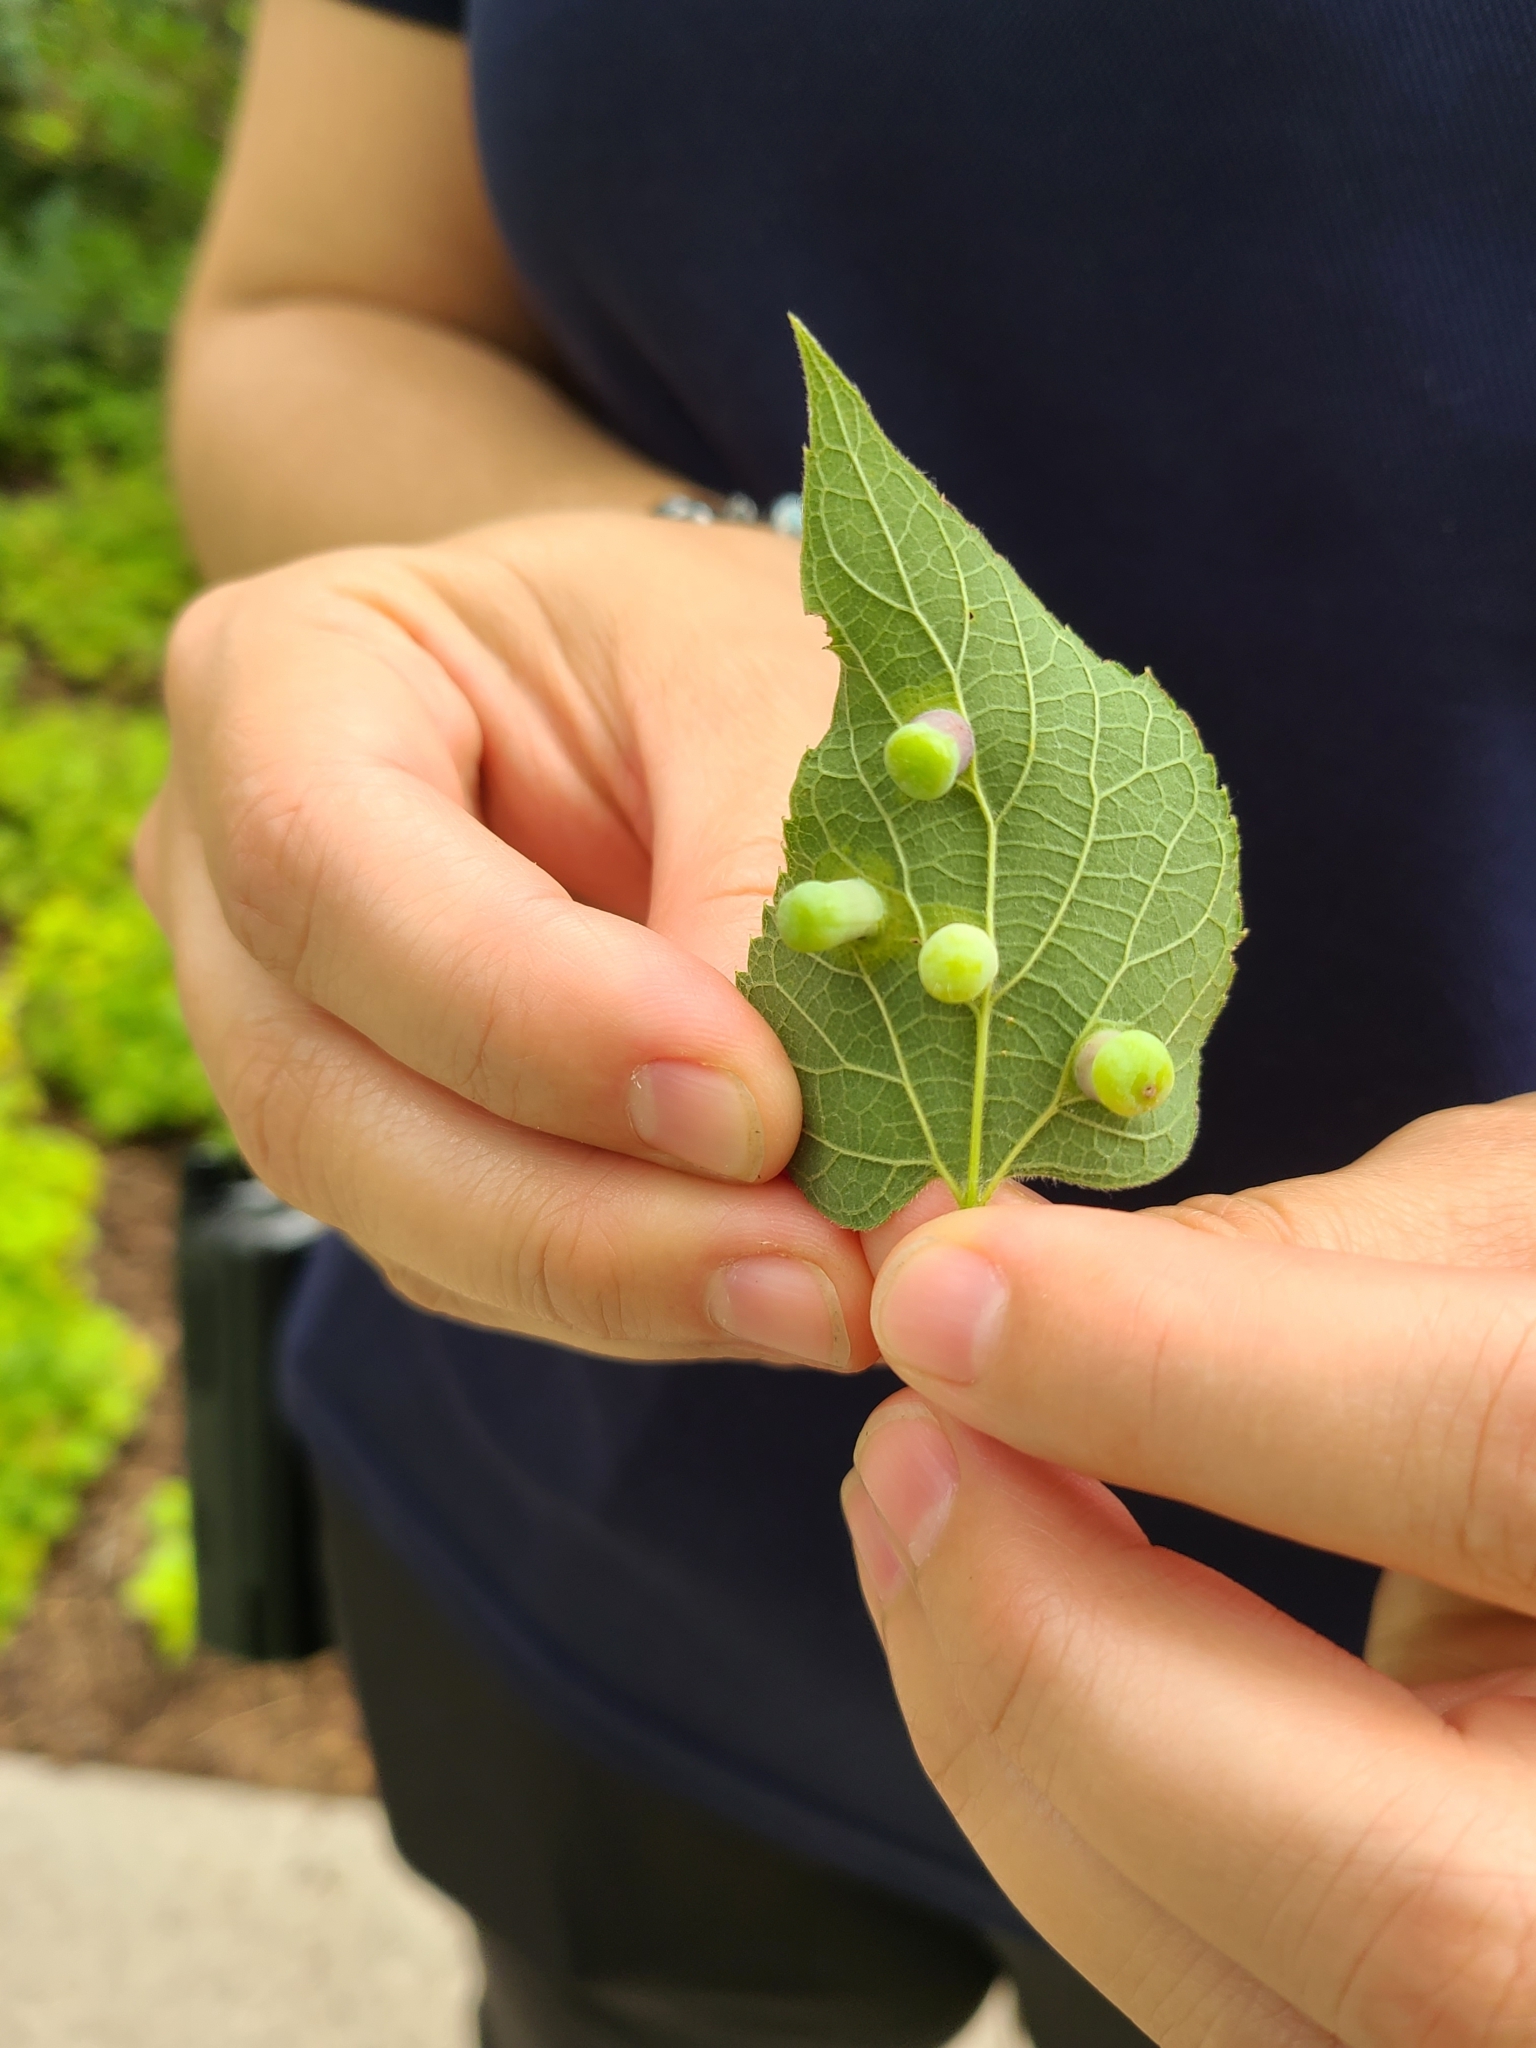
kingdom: Animalia
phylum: Arthropoda
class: Insecta
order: Hemiptera
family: Aphalaridae
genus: Pachypsylla
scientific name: Pachypsylla celtidismamma
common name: Hackberry nipplegall psyllid
